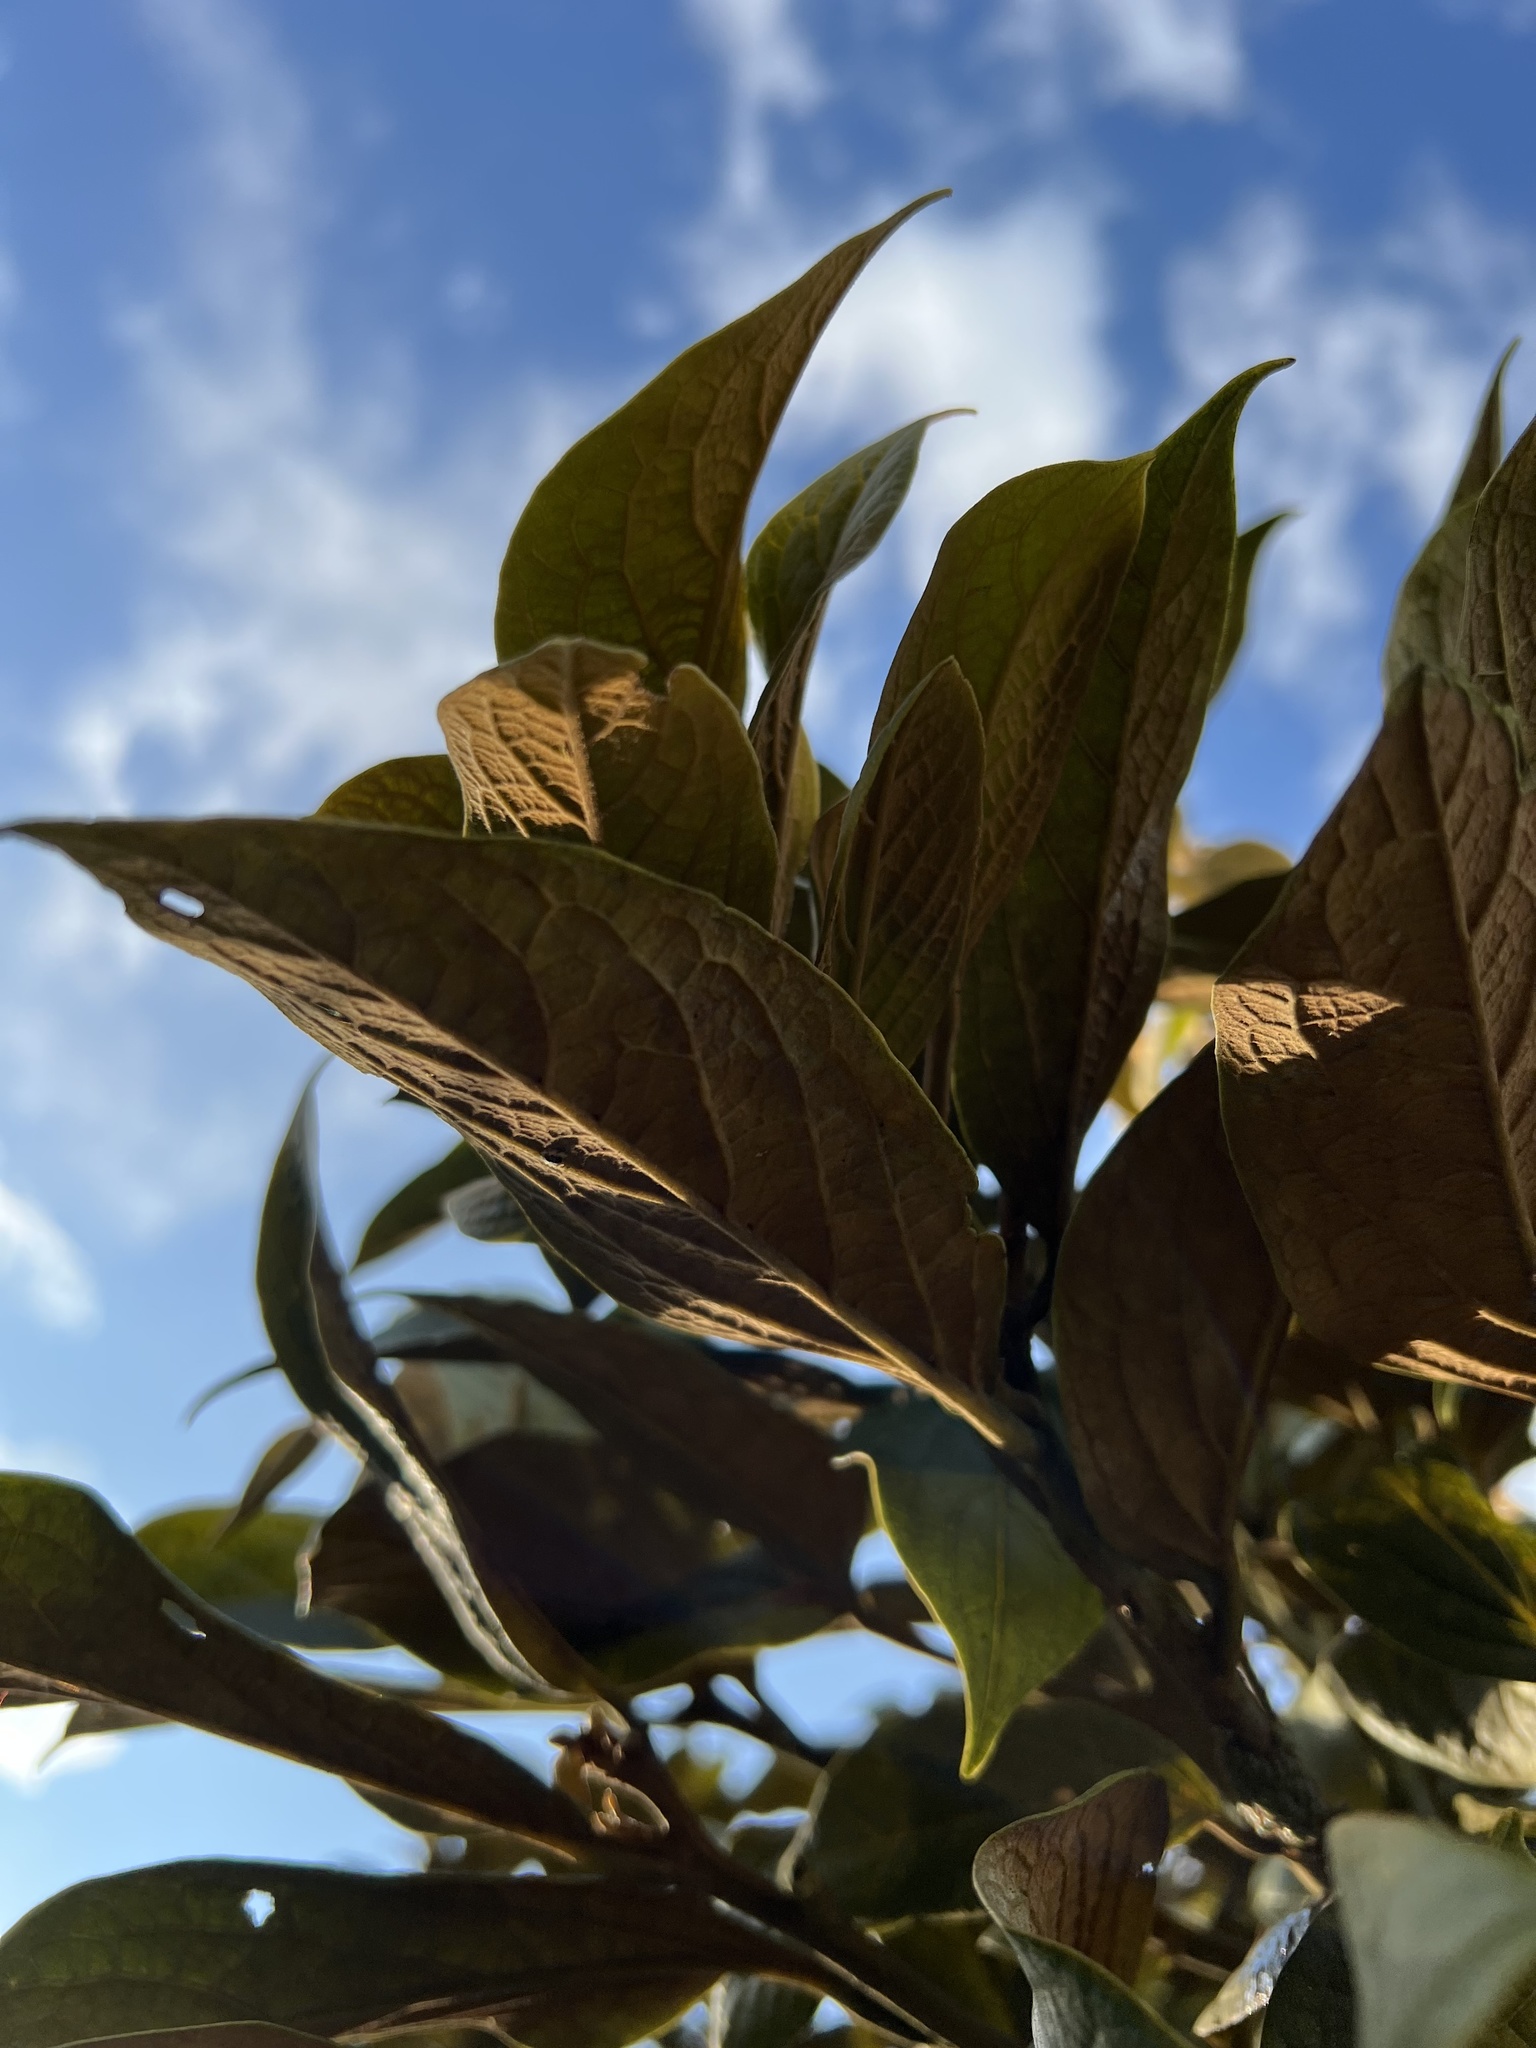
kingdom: Plantae
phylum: Tracheophyta
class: Magnoliopsida
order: Laurales
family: Lauraceae
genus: Ocotea
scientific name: Ocotea pedicellata
